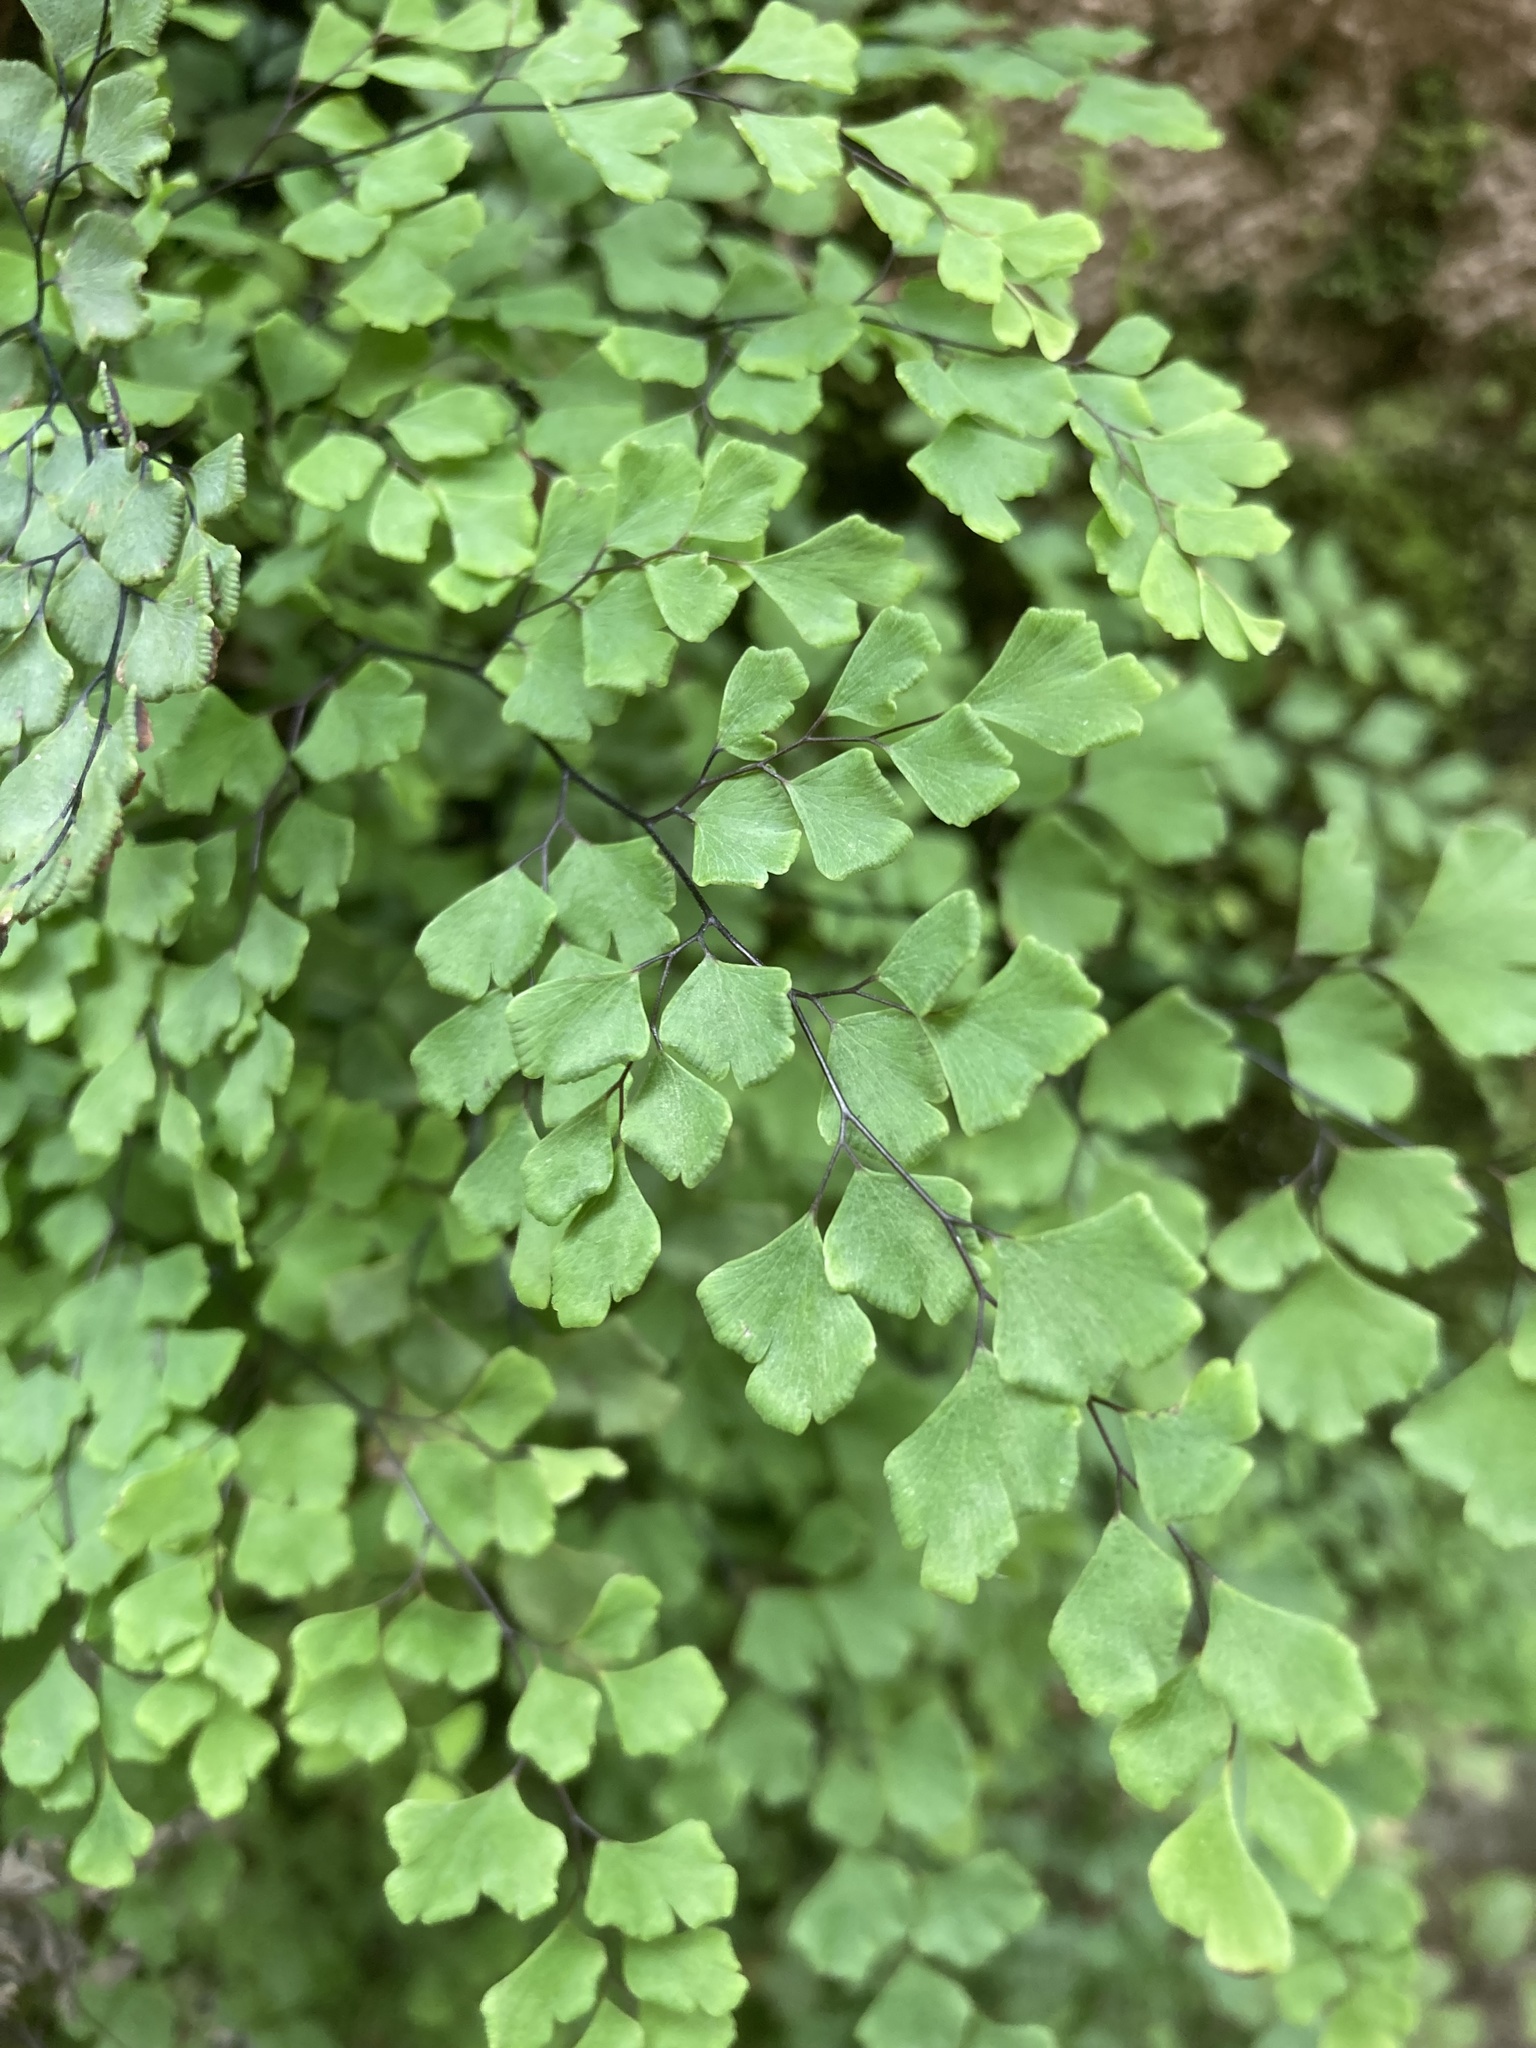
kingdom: Plantae
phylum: Tracheophyta
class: Polypodiopsida
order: Polypodiales
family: Pteridaceae
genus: Adiantum
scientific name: Adiantum capillus-veneris
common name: Maidenhair fern
